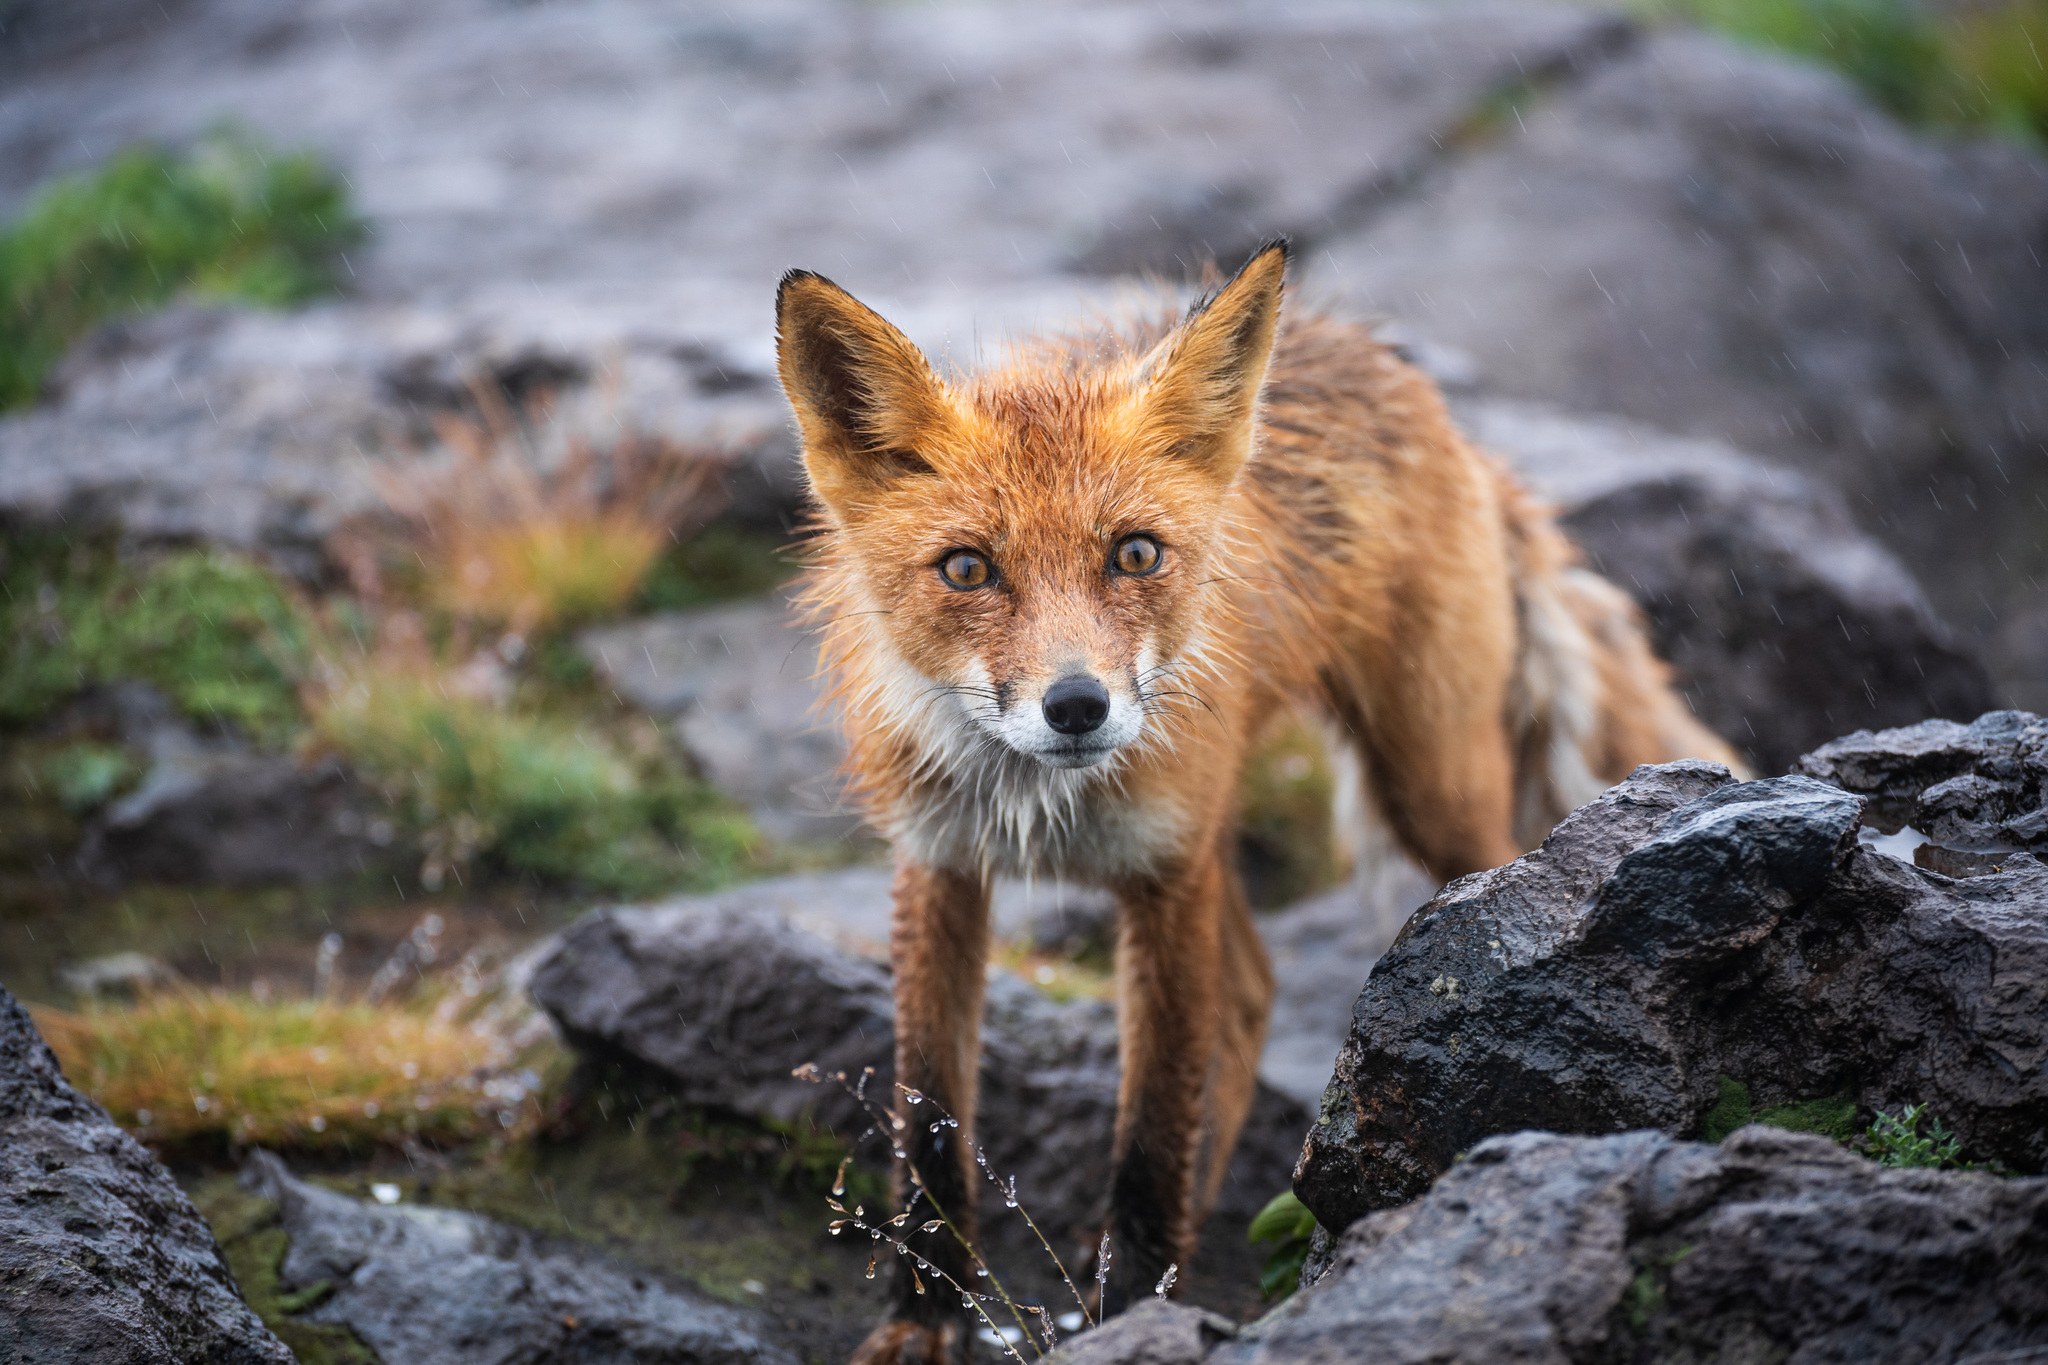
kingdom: Animalia
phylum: Chordata
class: Mammalia
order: Carnivora
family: Canidae
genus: Vulpes
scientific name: Vulpes vulpes
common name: Red fox
